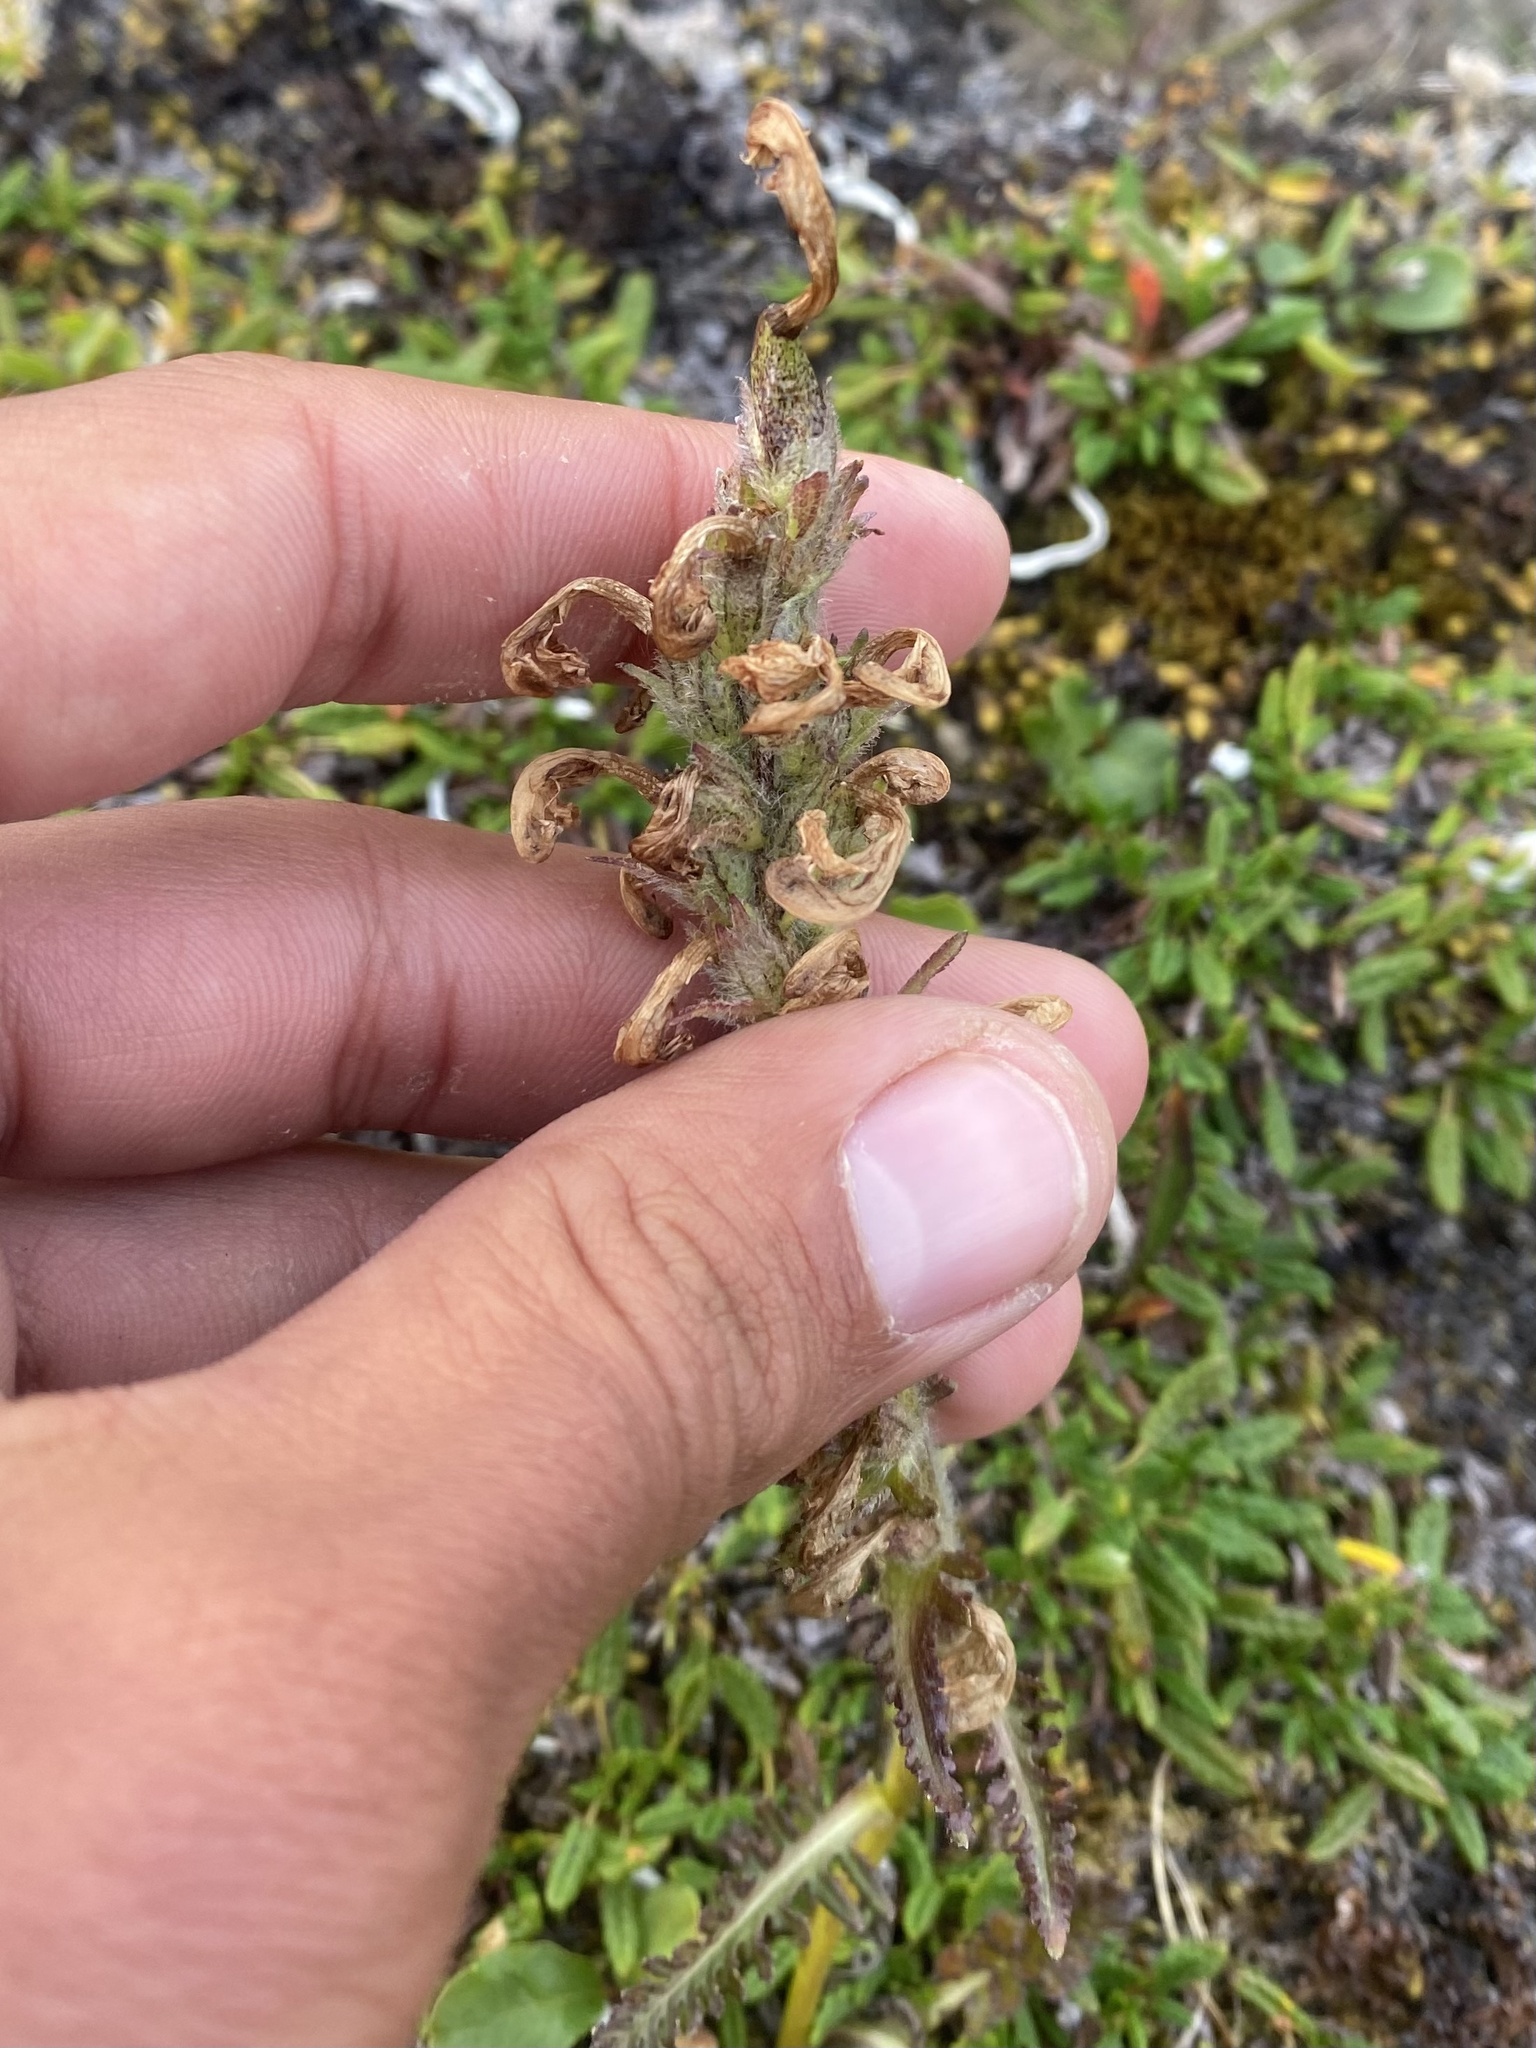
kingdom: Plantae
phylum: Tracheophyta
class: Magnoliopsida
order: Lamiales
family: Orobanchaceae
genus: Pedicularis
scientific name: Pedicularis sudetica
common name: Sudeten lousewort
